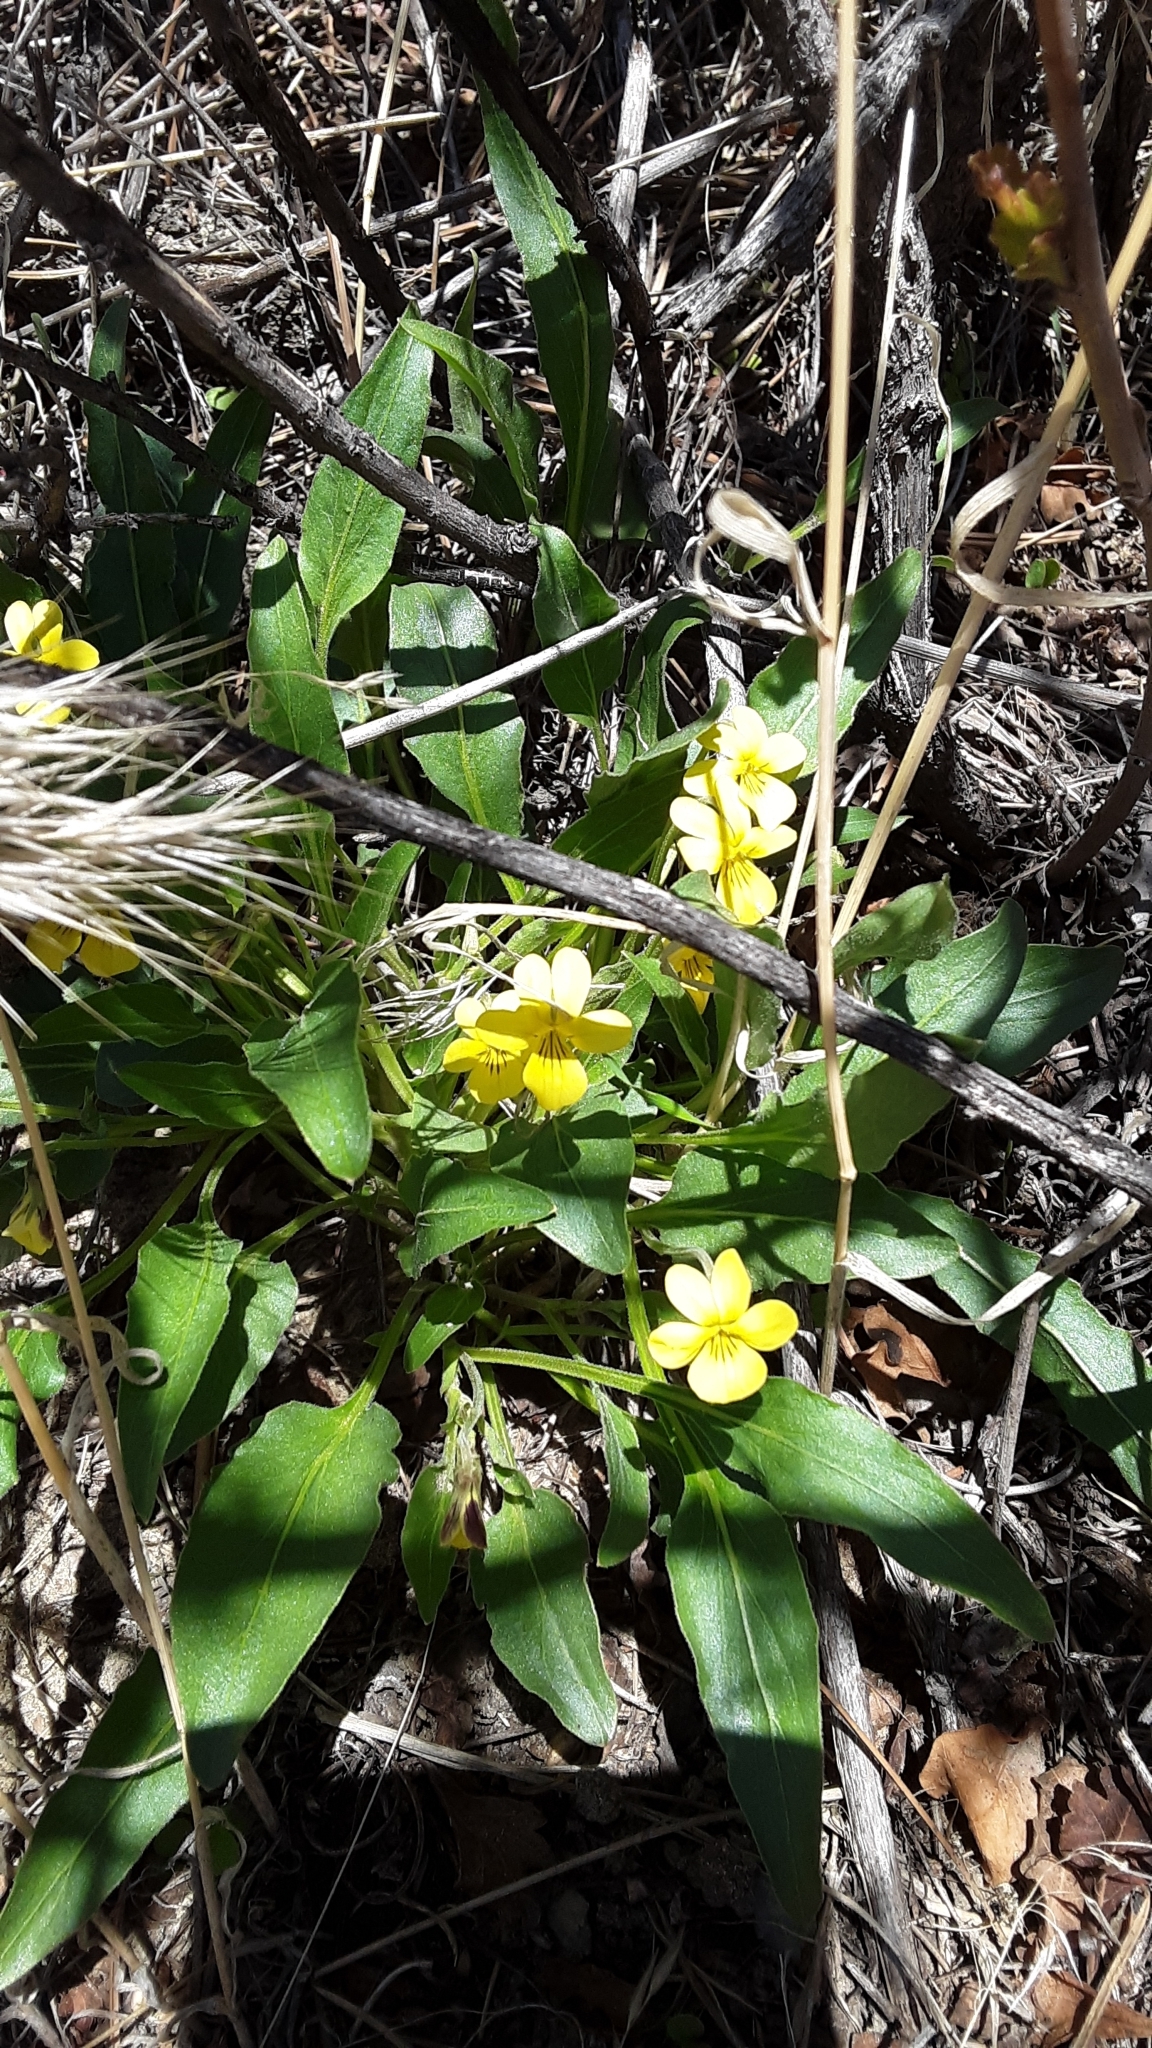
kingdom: Plantae
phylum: Tracheophyta
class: Magnoliopsida
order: Malpighiales
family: Violaceae
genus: Viola
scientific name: Viola nuttallii
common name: Yellow prairie violet
